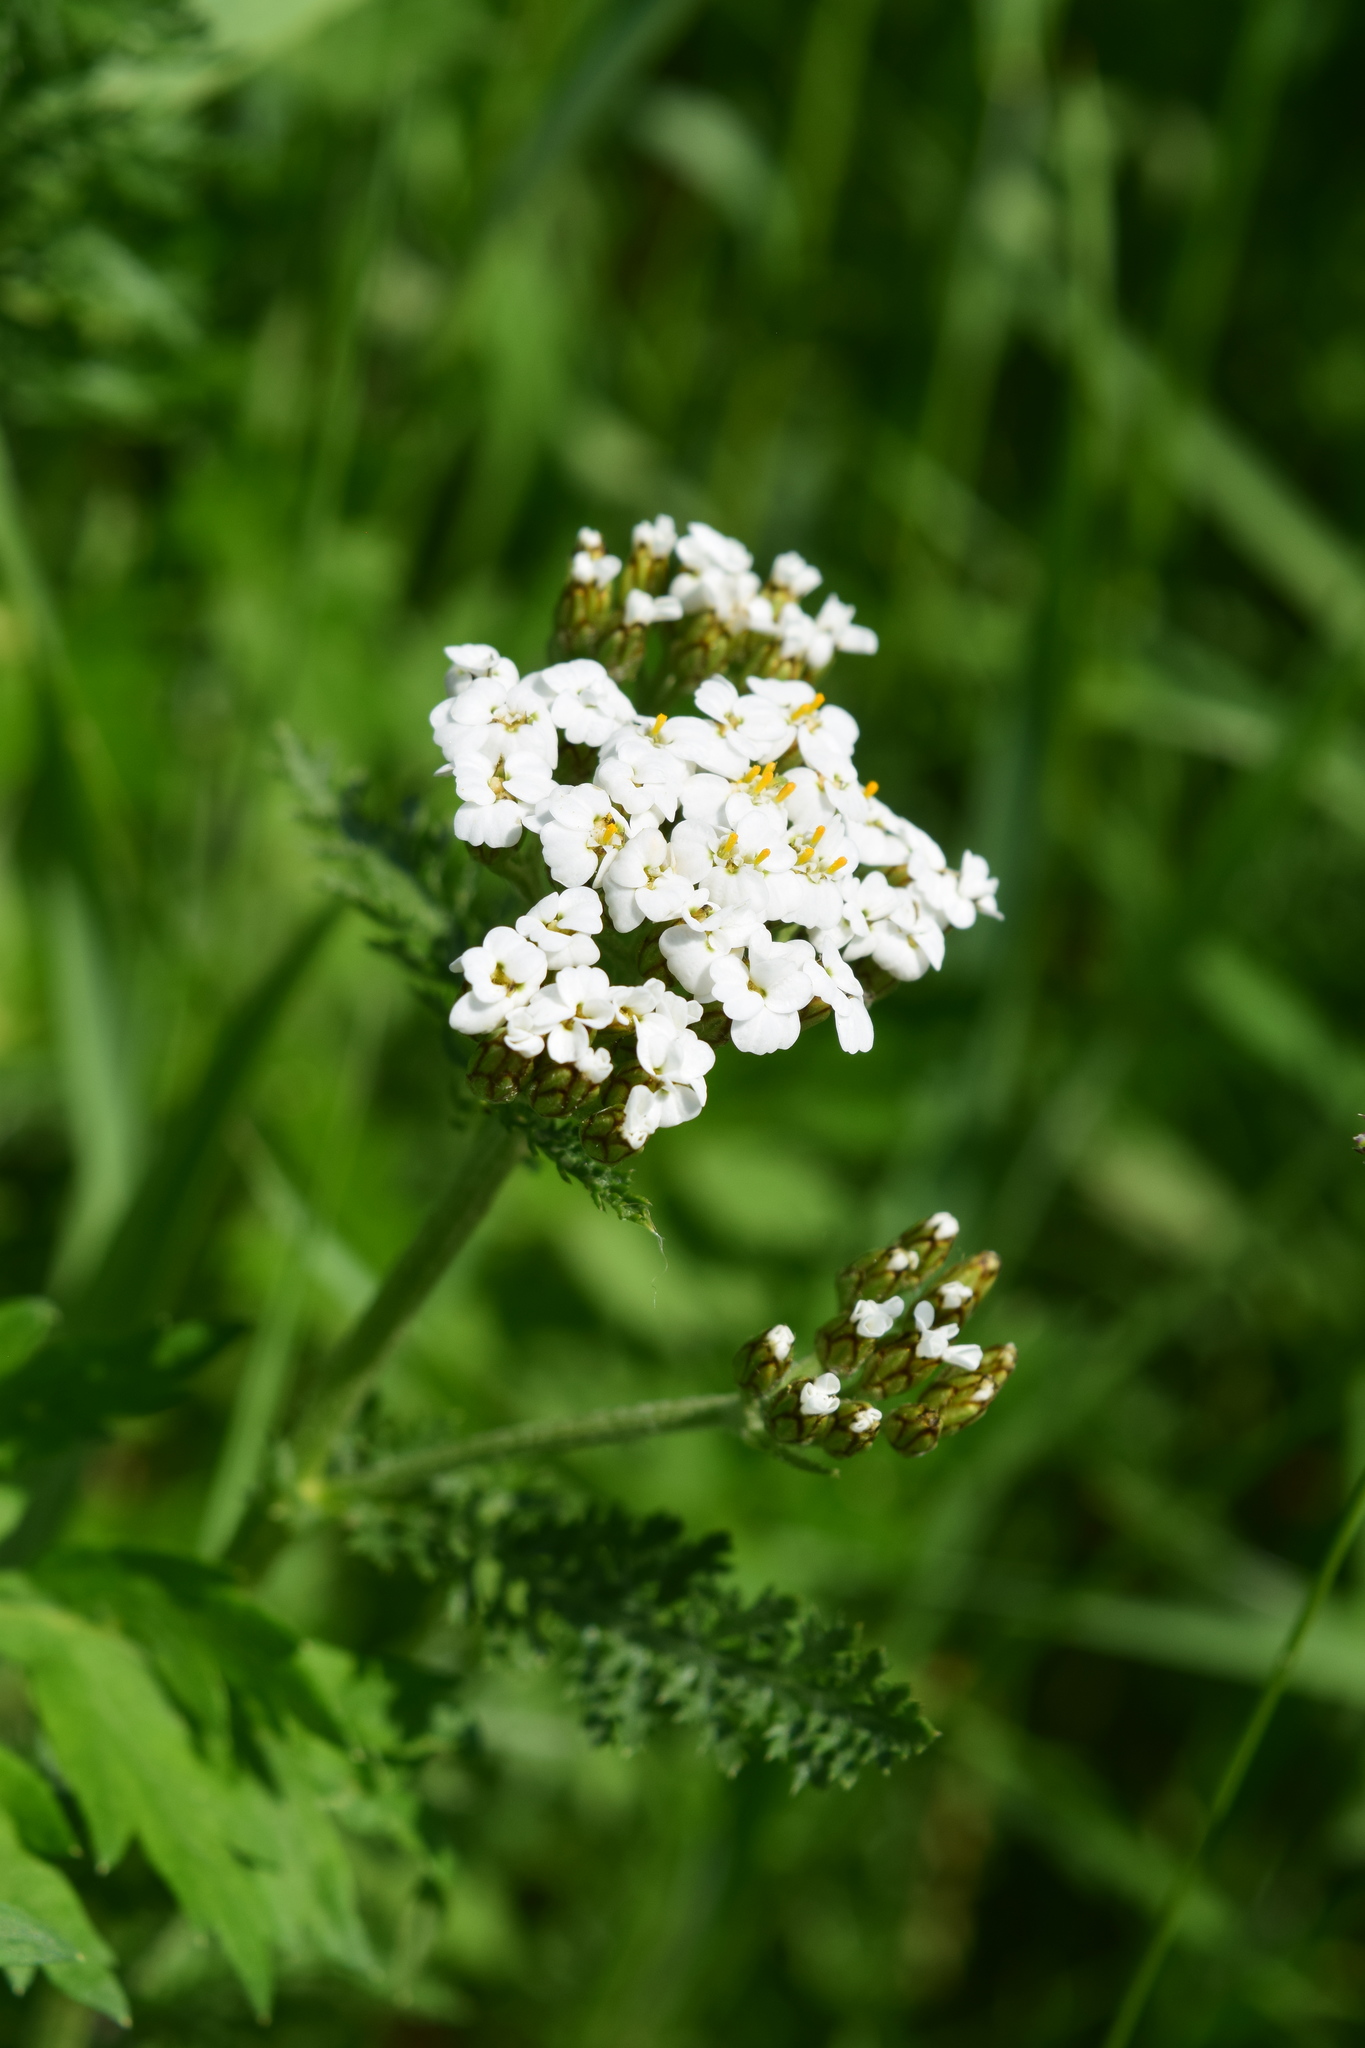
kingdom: Plantae
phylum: Tracheophyta
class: Magnoliopsida
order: Asterales
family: Asteraceae
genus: Achillea
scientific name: Achillea millefolium
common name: Yarrow
